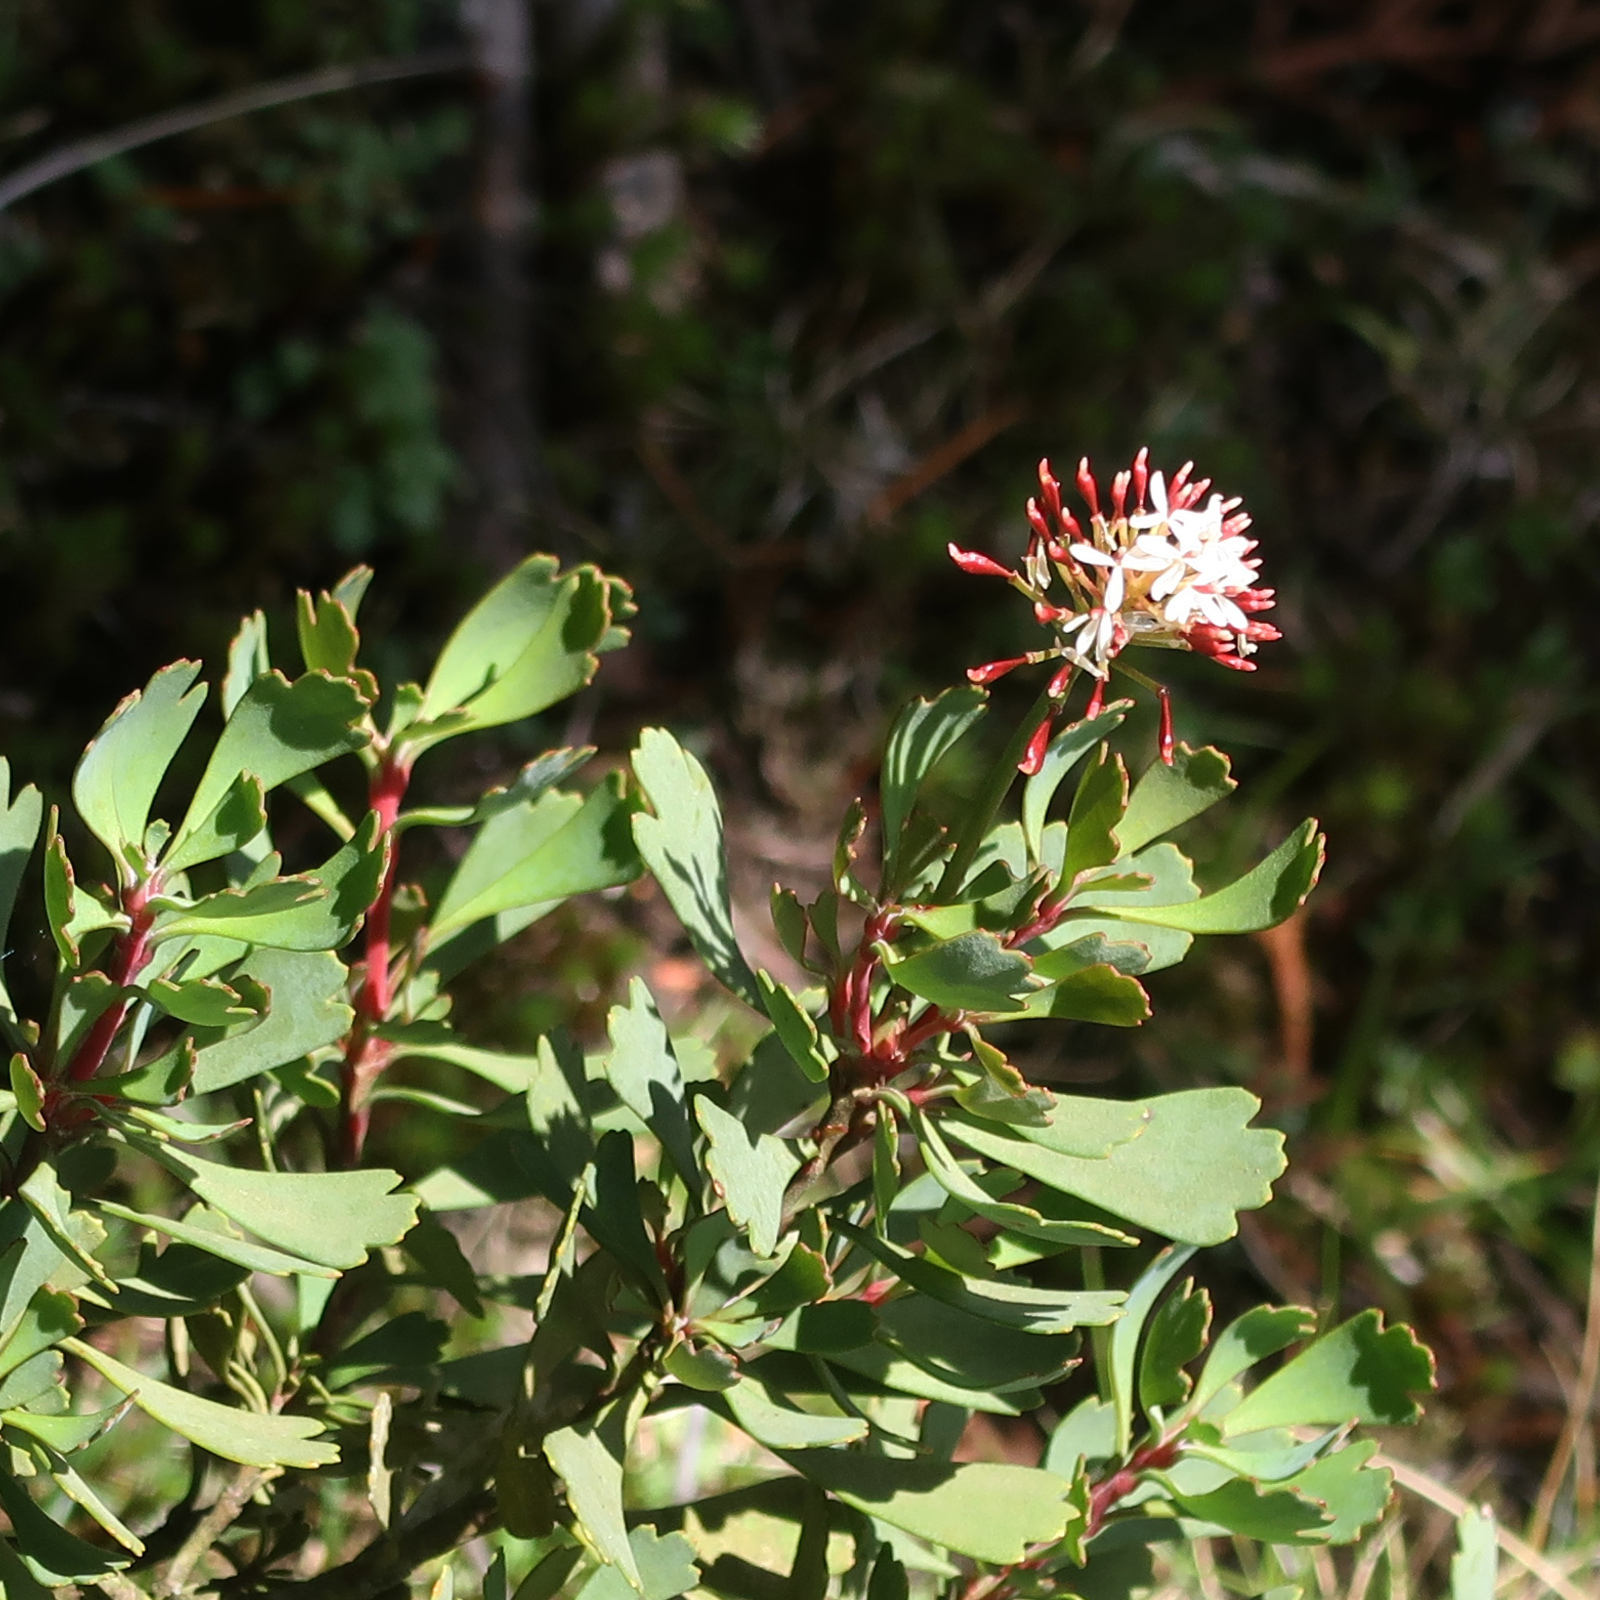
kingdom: Plantae
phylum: Tracheophyta
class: Magnoliopsida
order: Proteales
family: Proteaceae
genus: Bellendena
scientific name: Bellendena montana
